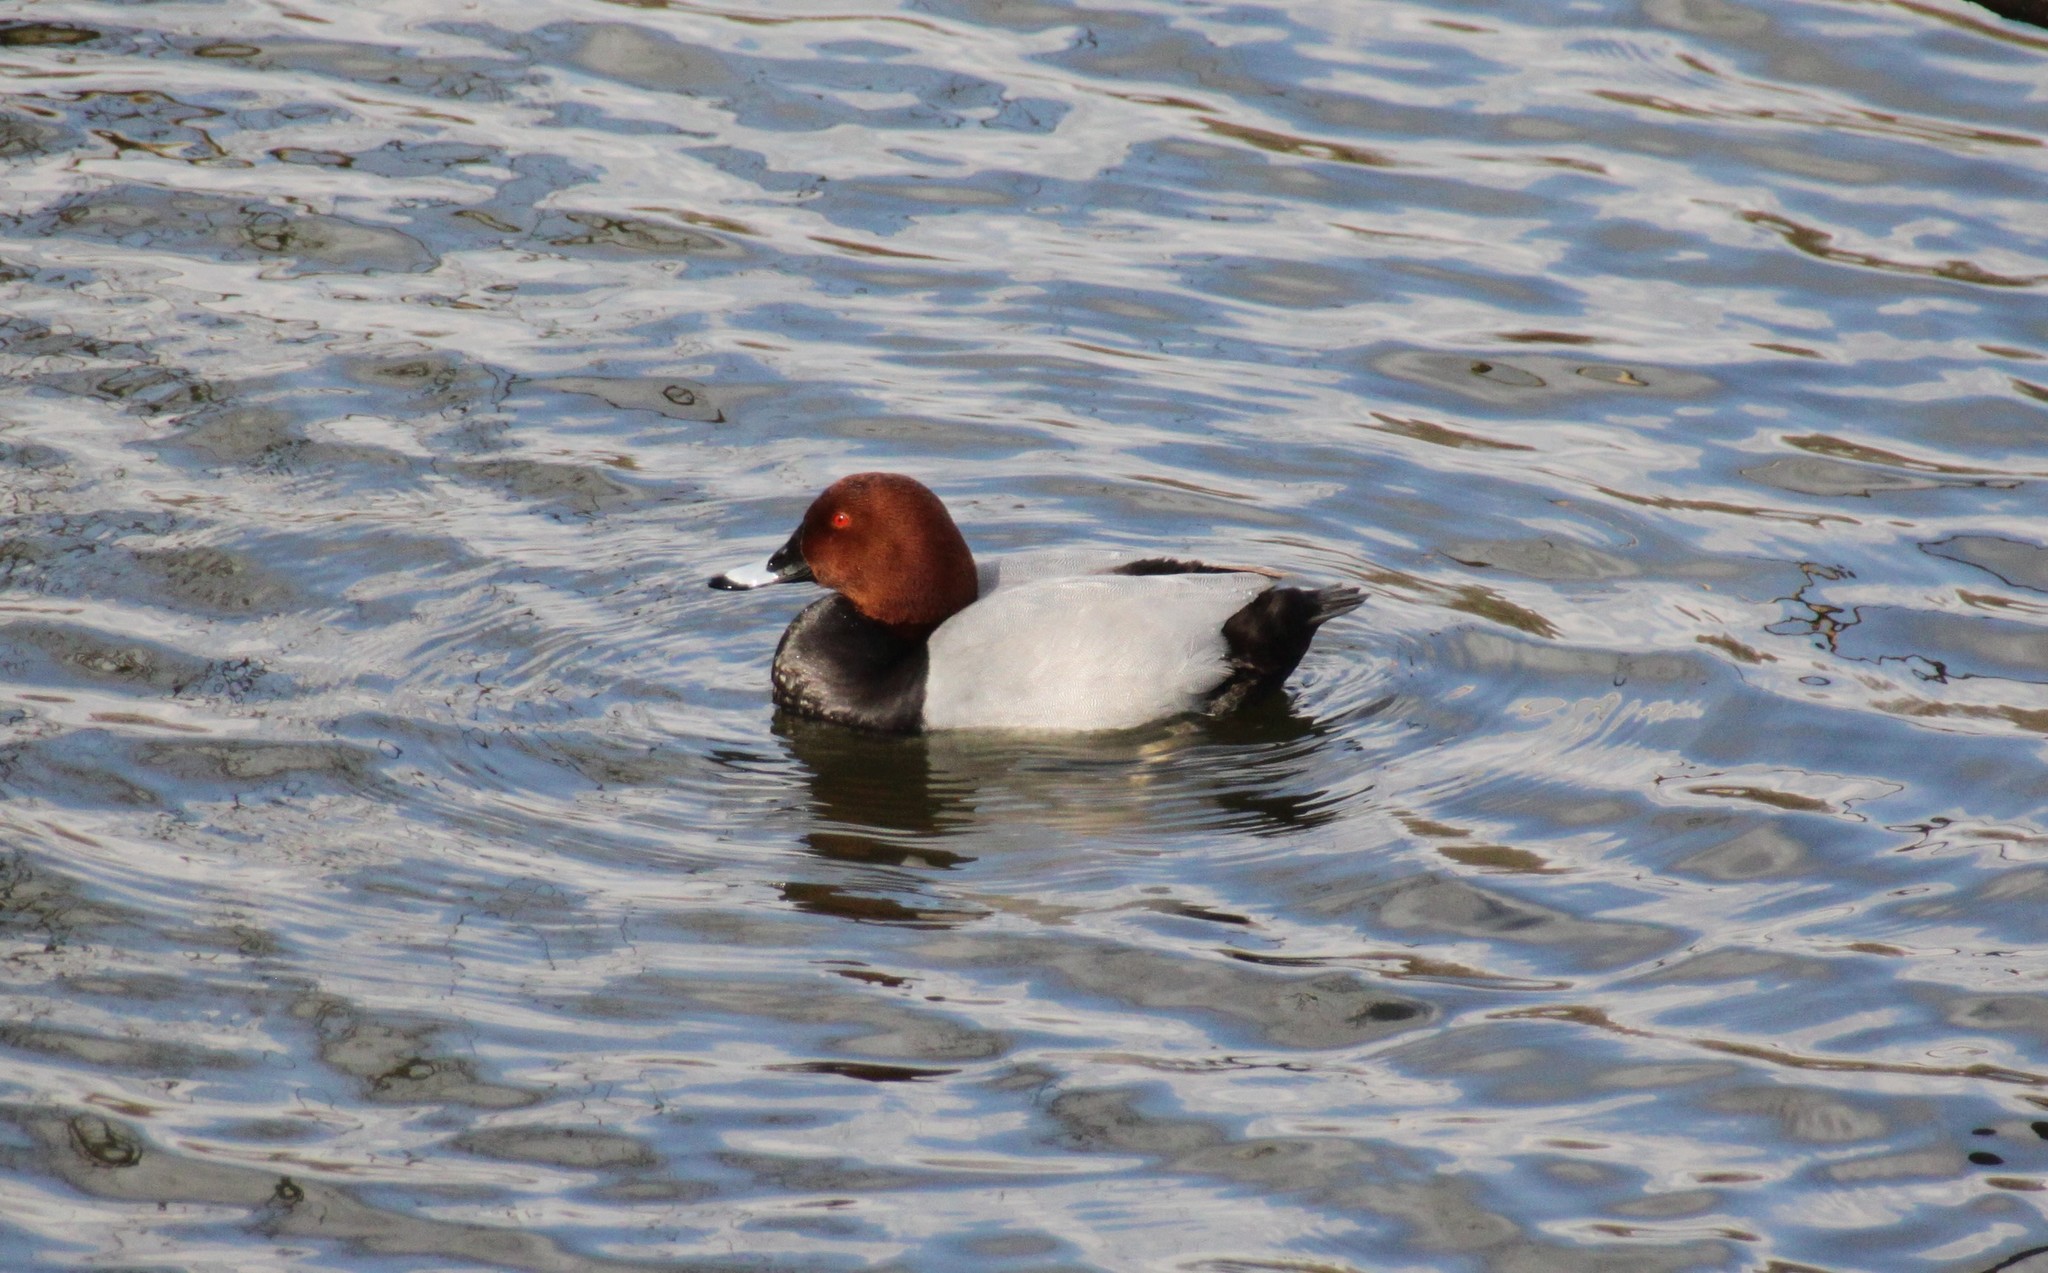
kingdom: Animalia
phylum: Chordata
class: Aves
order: Anseriformes
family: Anatidae
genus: Aythya
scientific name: Aythya ferina
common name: Common pochard
